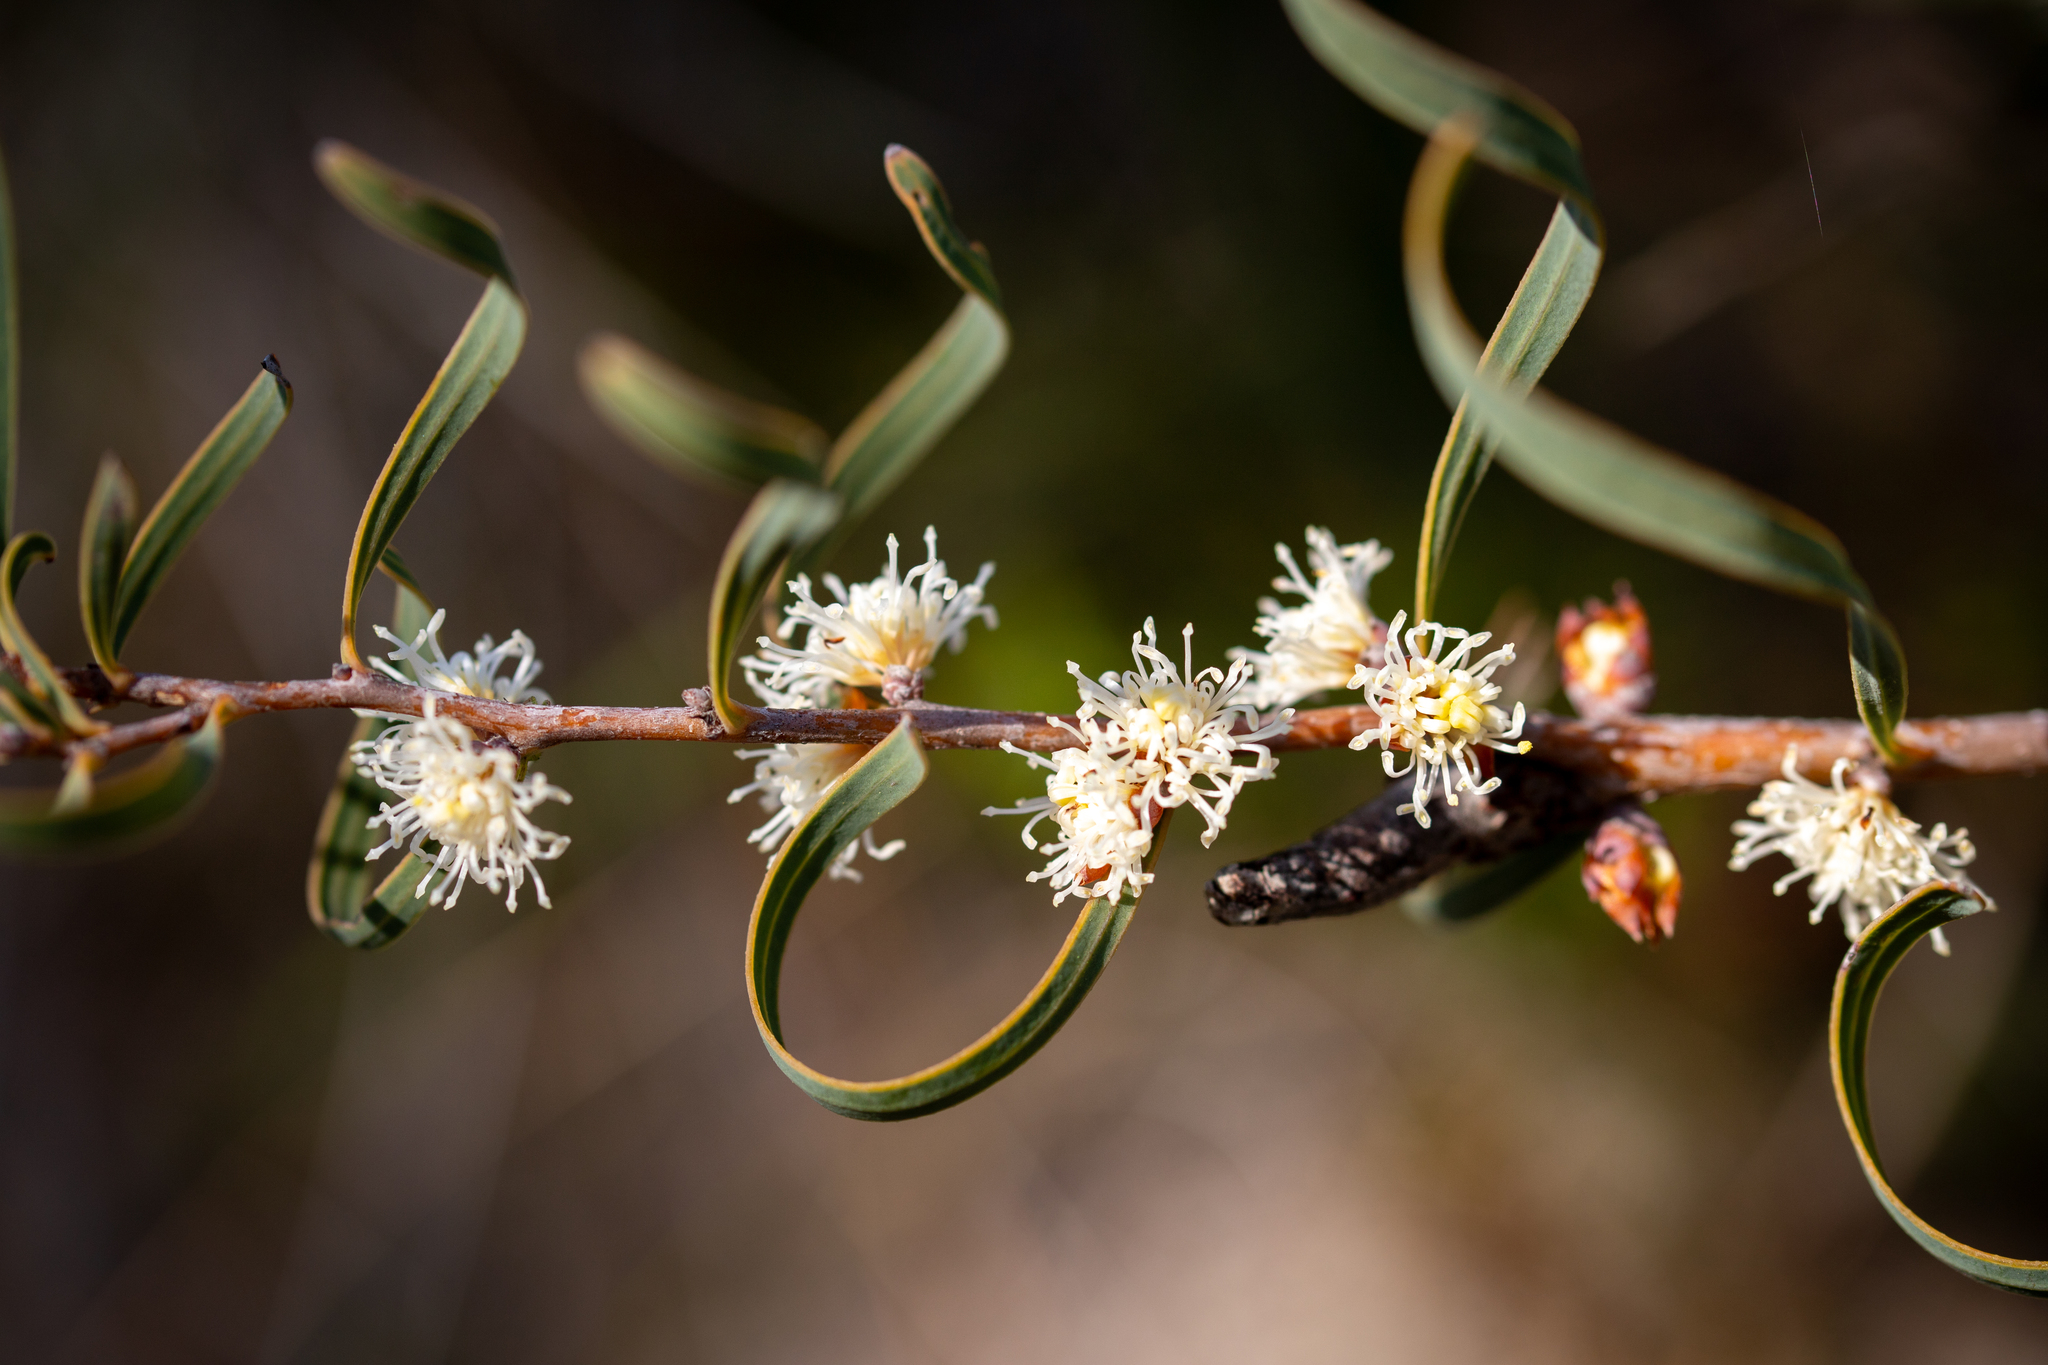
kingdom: Plantae
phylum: Tracheophyta
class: Magnoliopsida
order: Proteales
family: Proteaceae
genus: Hakea
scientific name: Hakea stenocarpa
